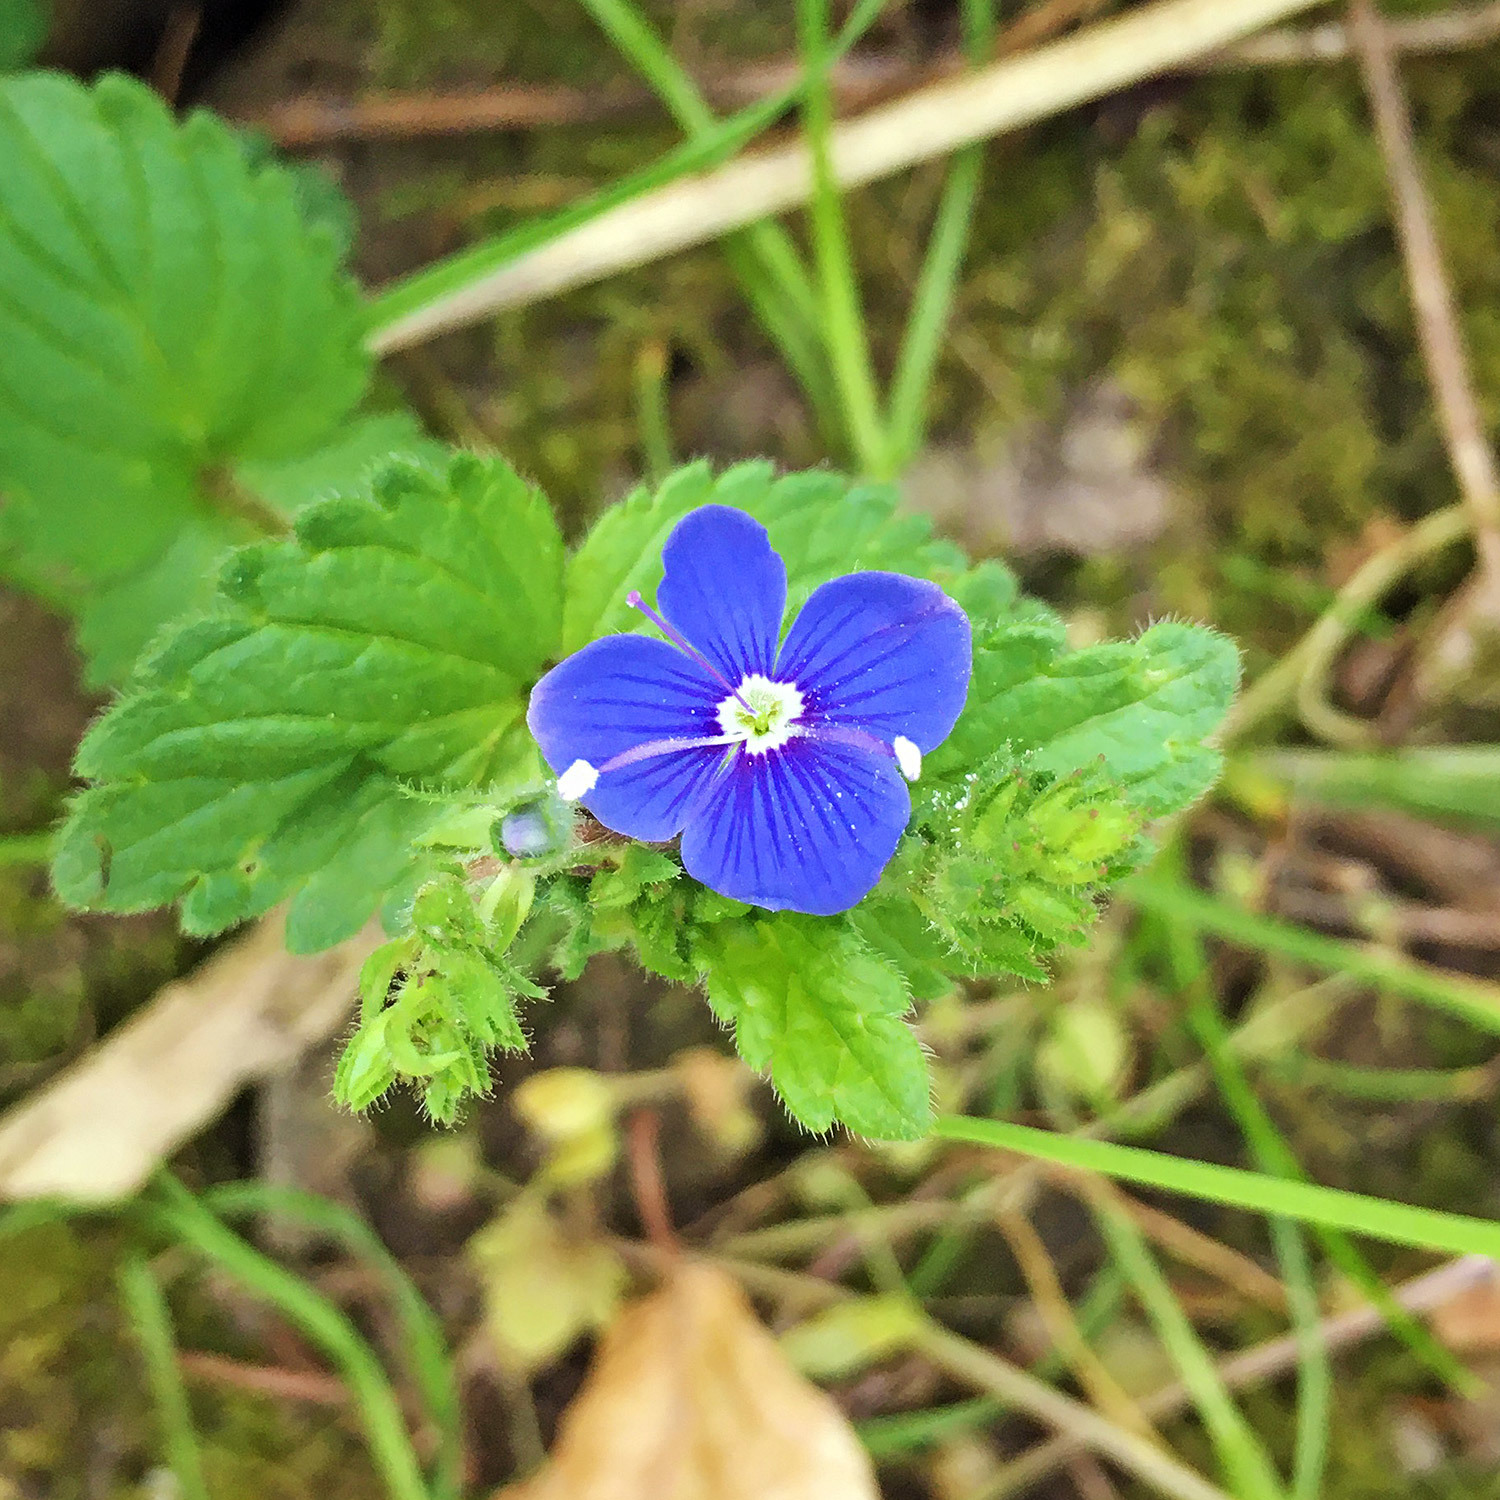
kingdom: Plantae
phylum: Tracheophyta
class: Magnoliopsida
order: Lamiales
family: Plantaginaceae
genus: Veronica
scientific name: Veronica chamaedrys
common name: Germander speedwell
